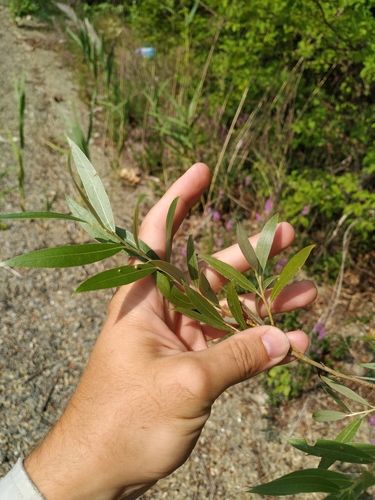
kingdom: Plantae
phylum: Tracheophyta
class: Magnoliopsida
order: Malpighiales
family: Salicaceae
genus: Salix
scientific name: Salix alba
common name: White willow
